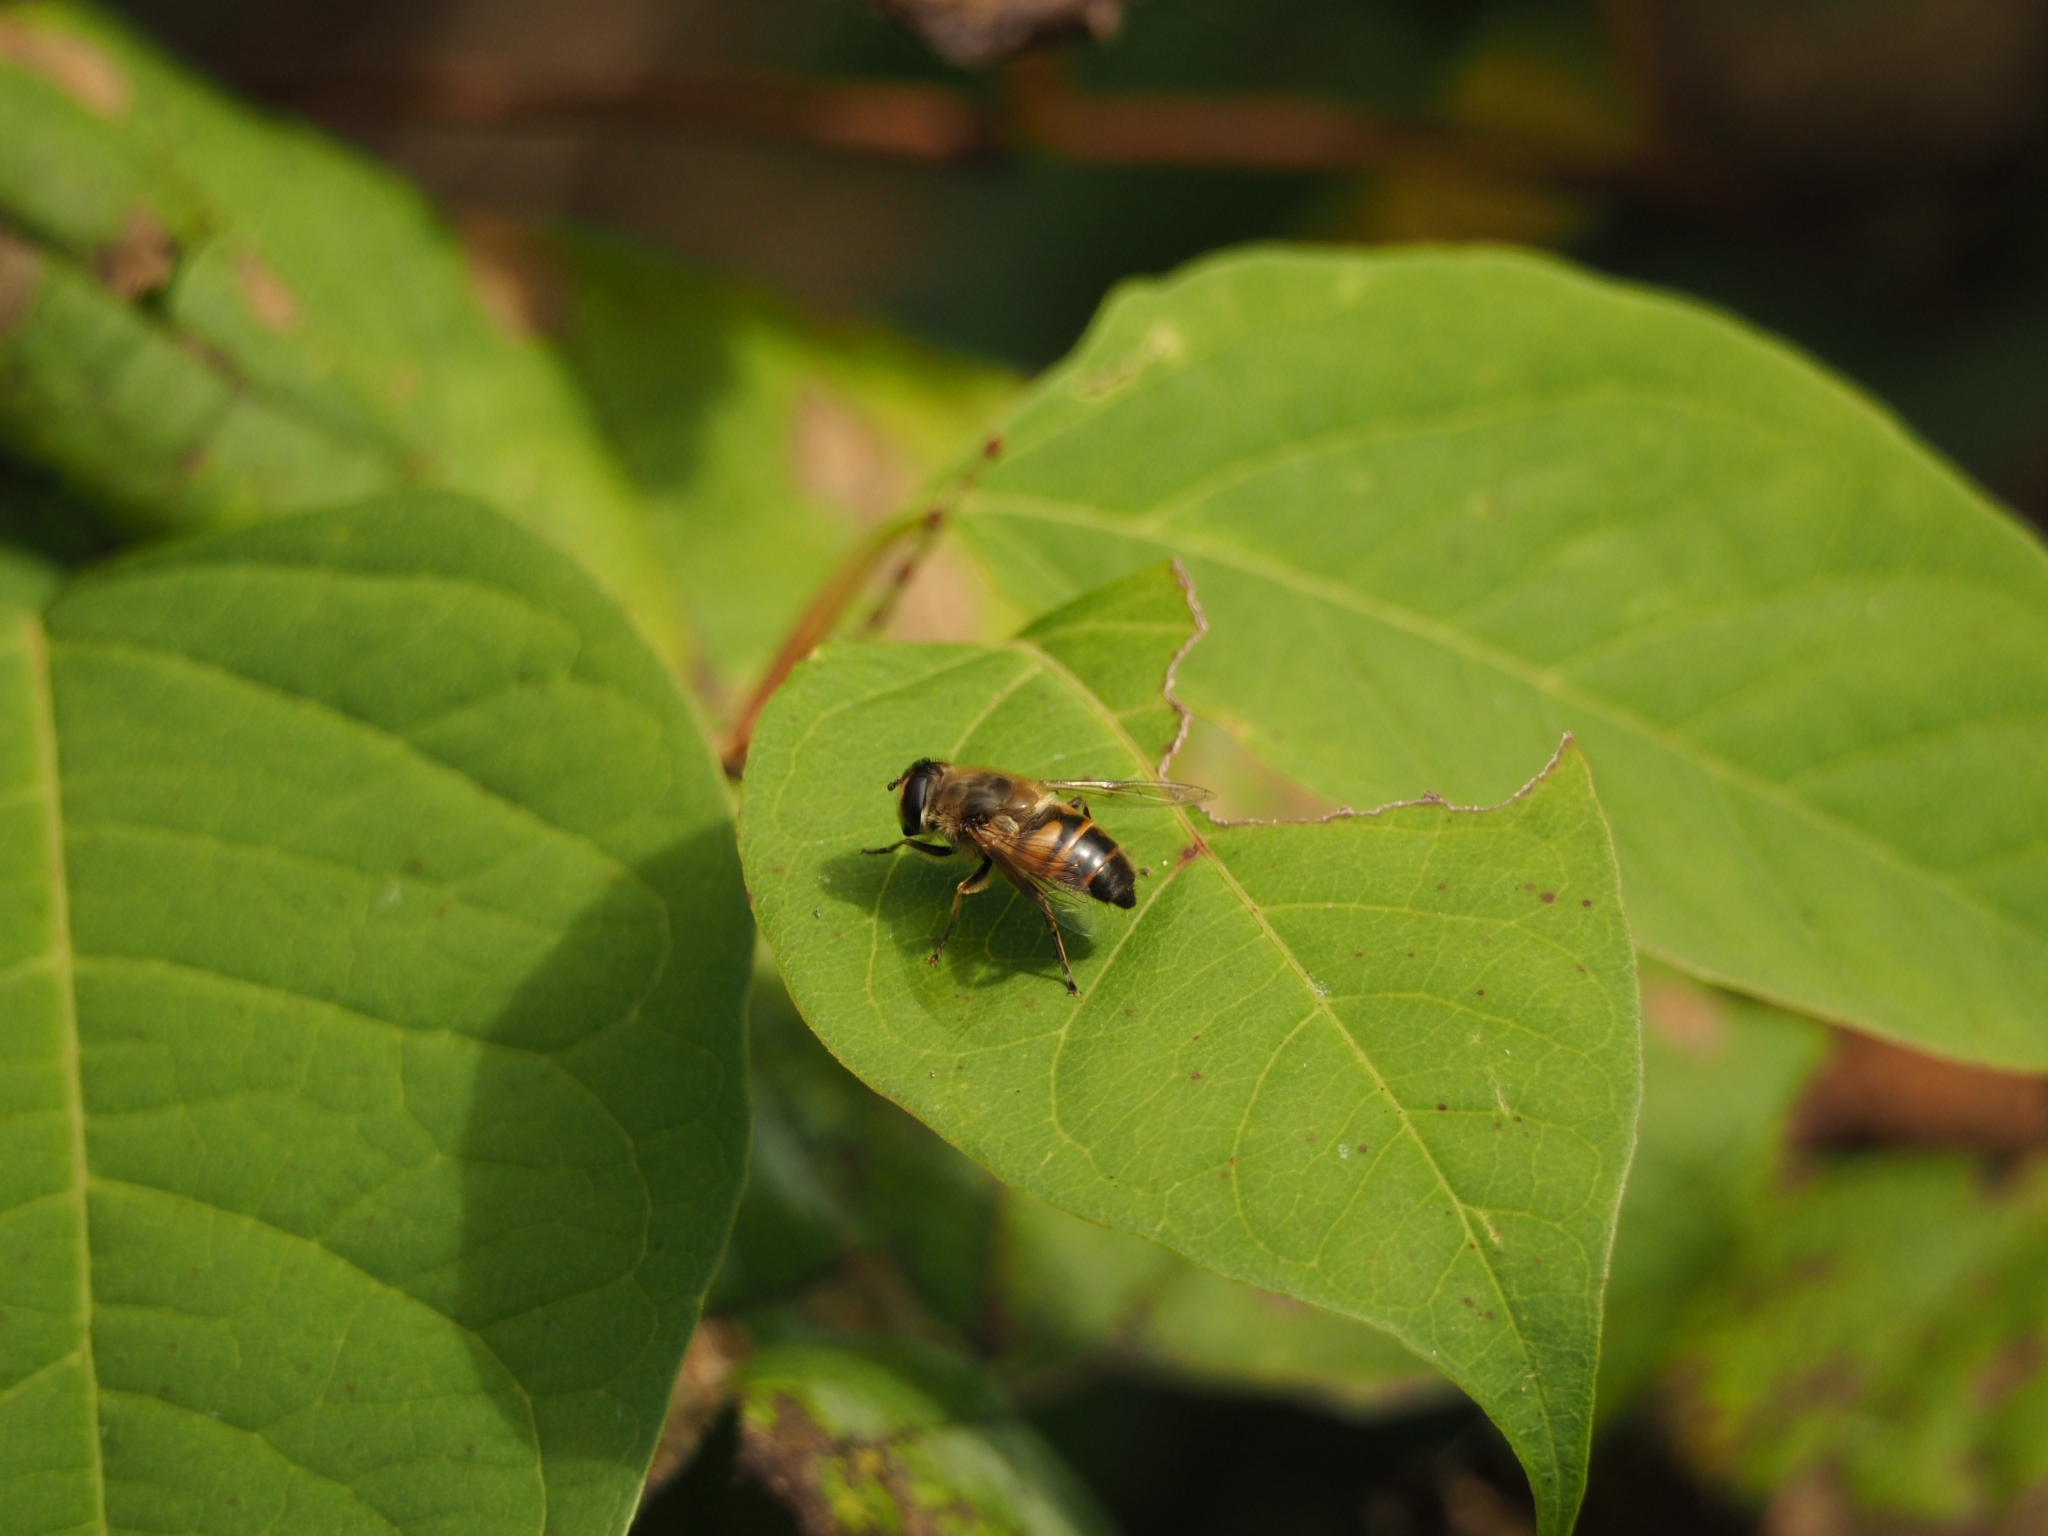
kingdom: Animalia
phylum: Arthropoda
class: Insecta
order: Diptera
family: Syrphidae
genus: Eristalis
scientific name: Eristalis tenax
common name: Drone fly
